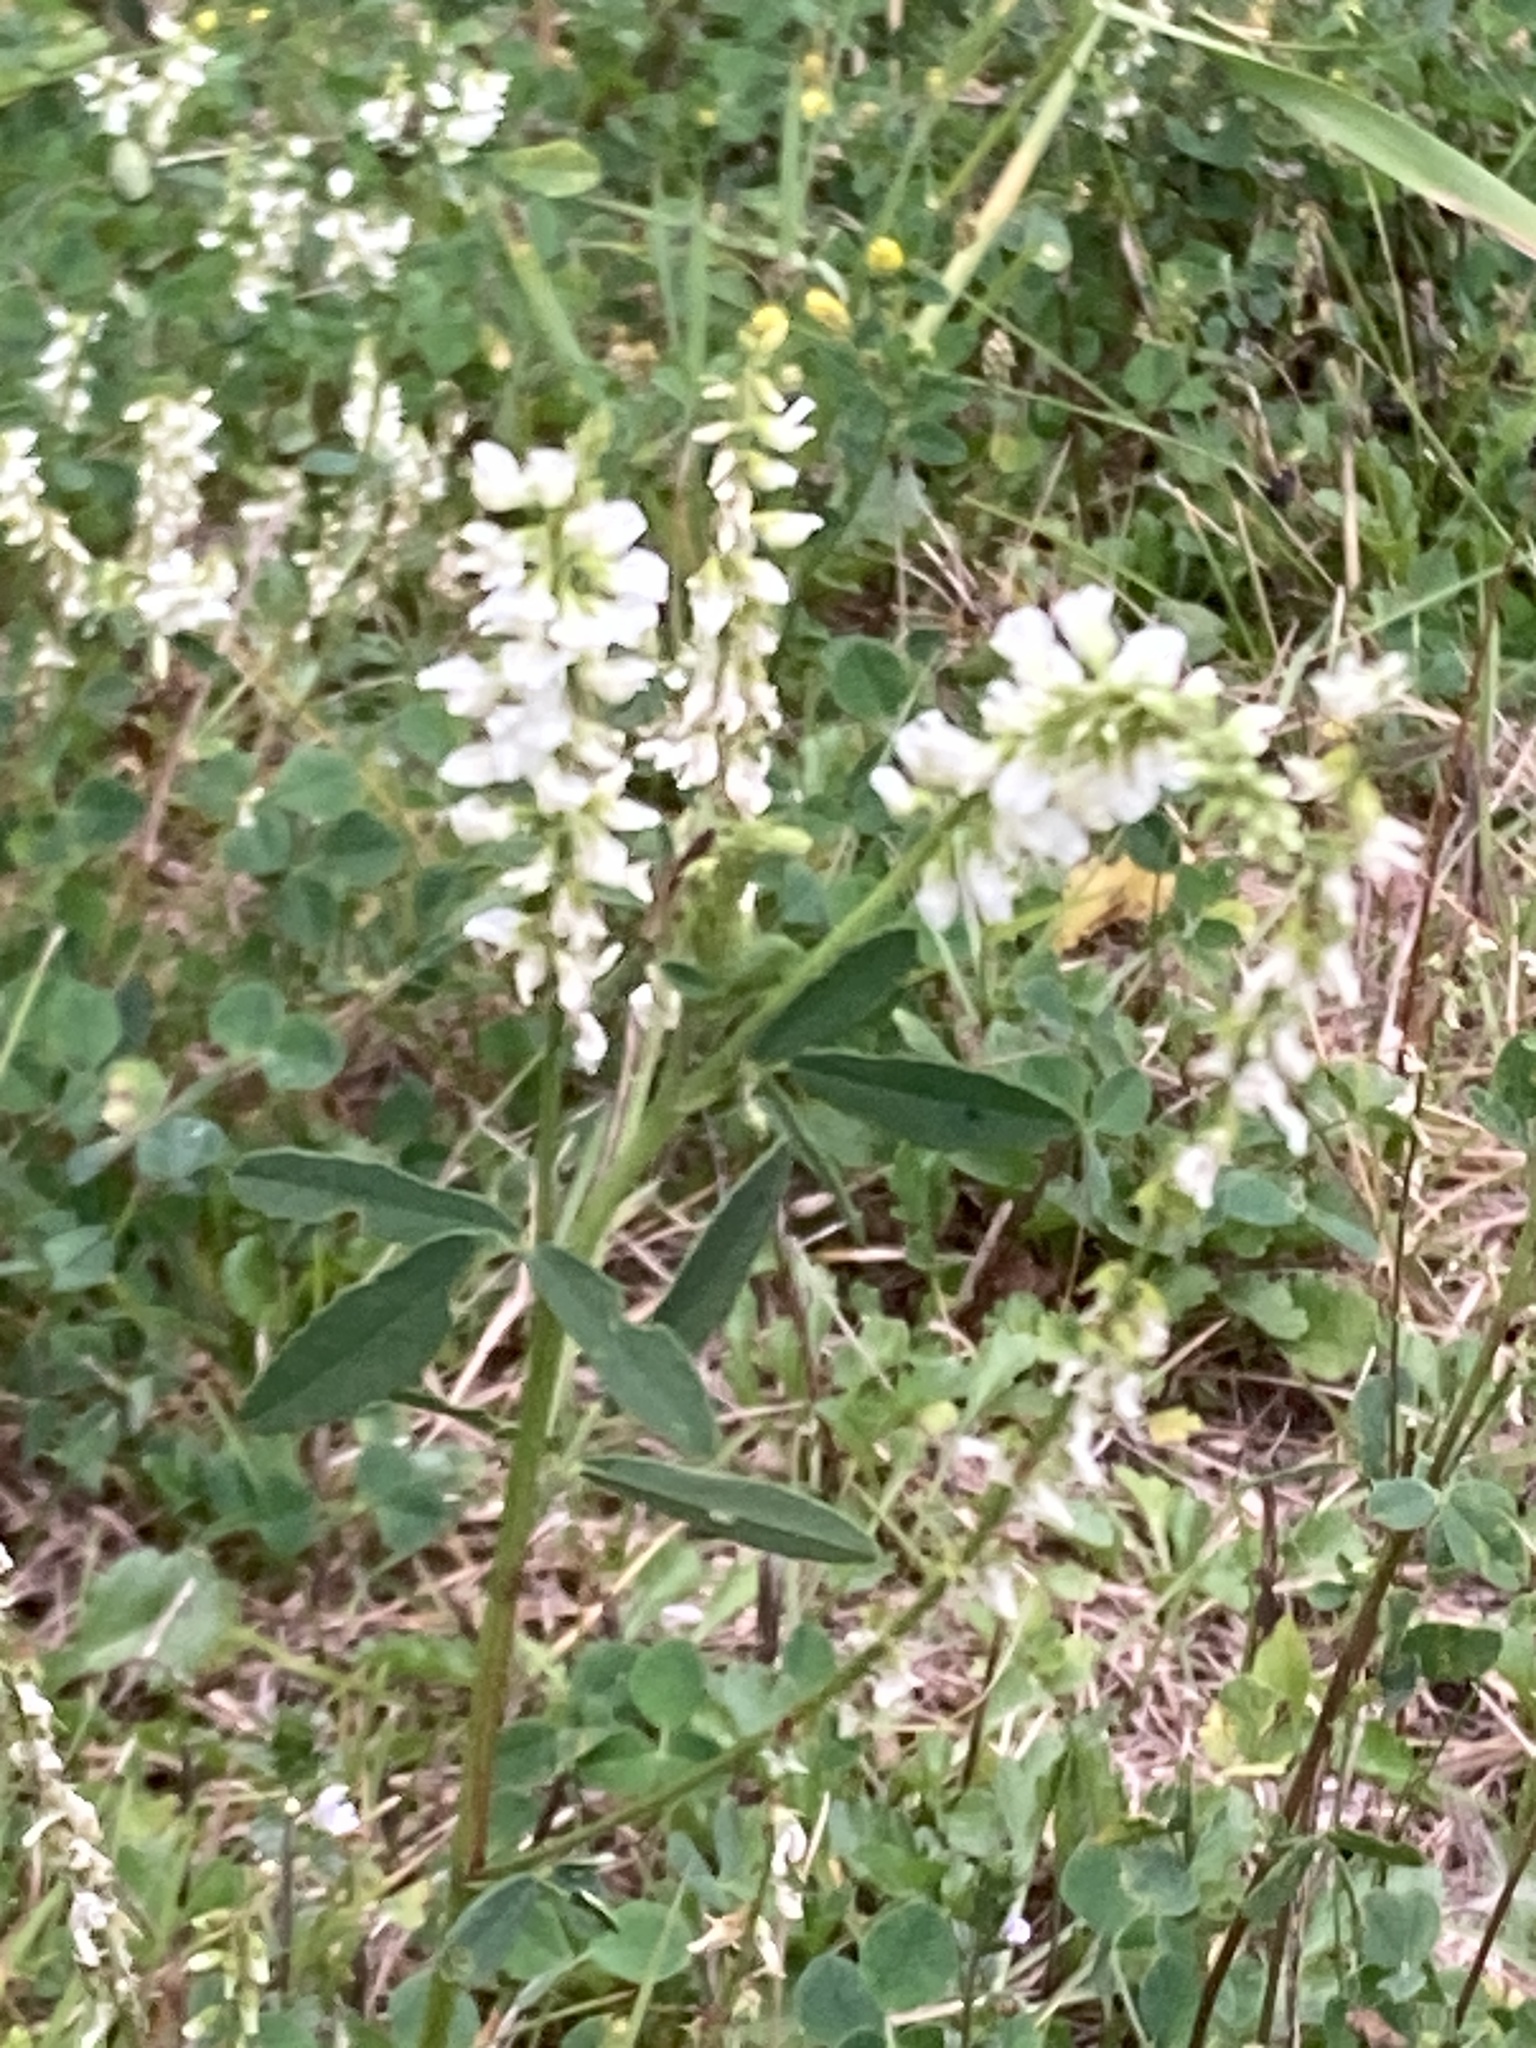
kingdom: Plantae
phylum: Tracheophyta
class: Magnoliopsida
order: Fabales
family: Fabaceae
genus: Melilotus
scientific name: Melilotus albus
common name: White melilot
